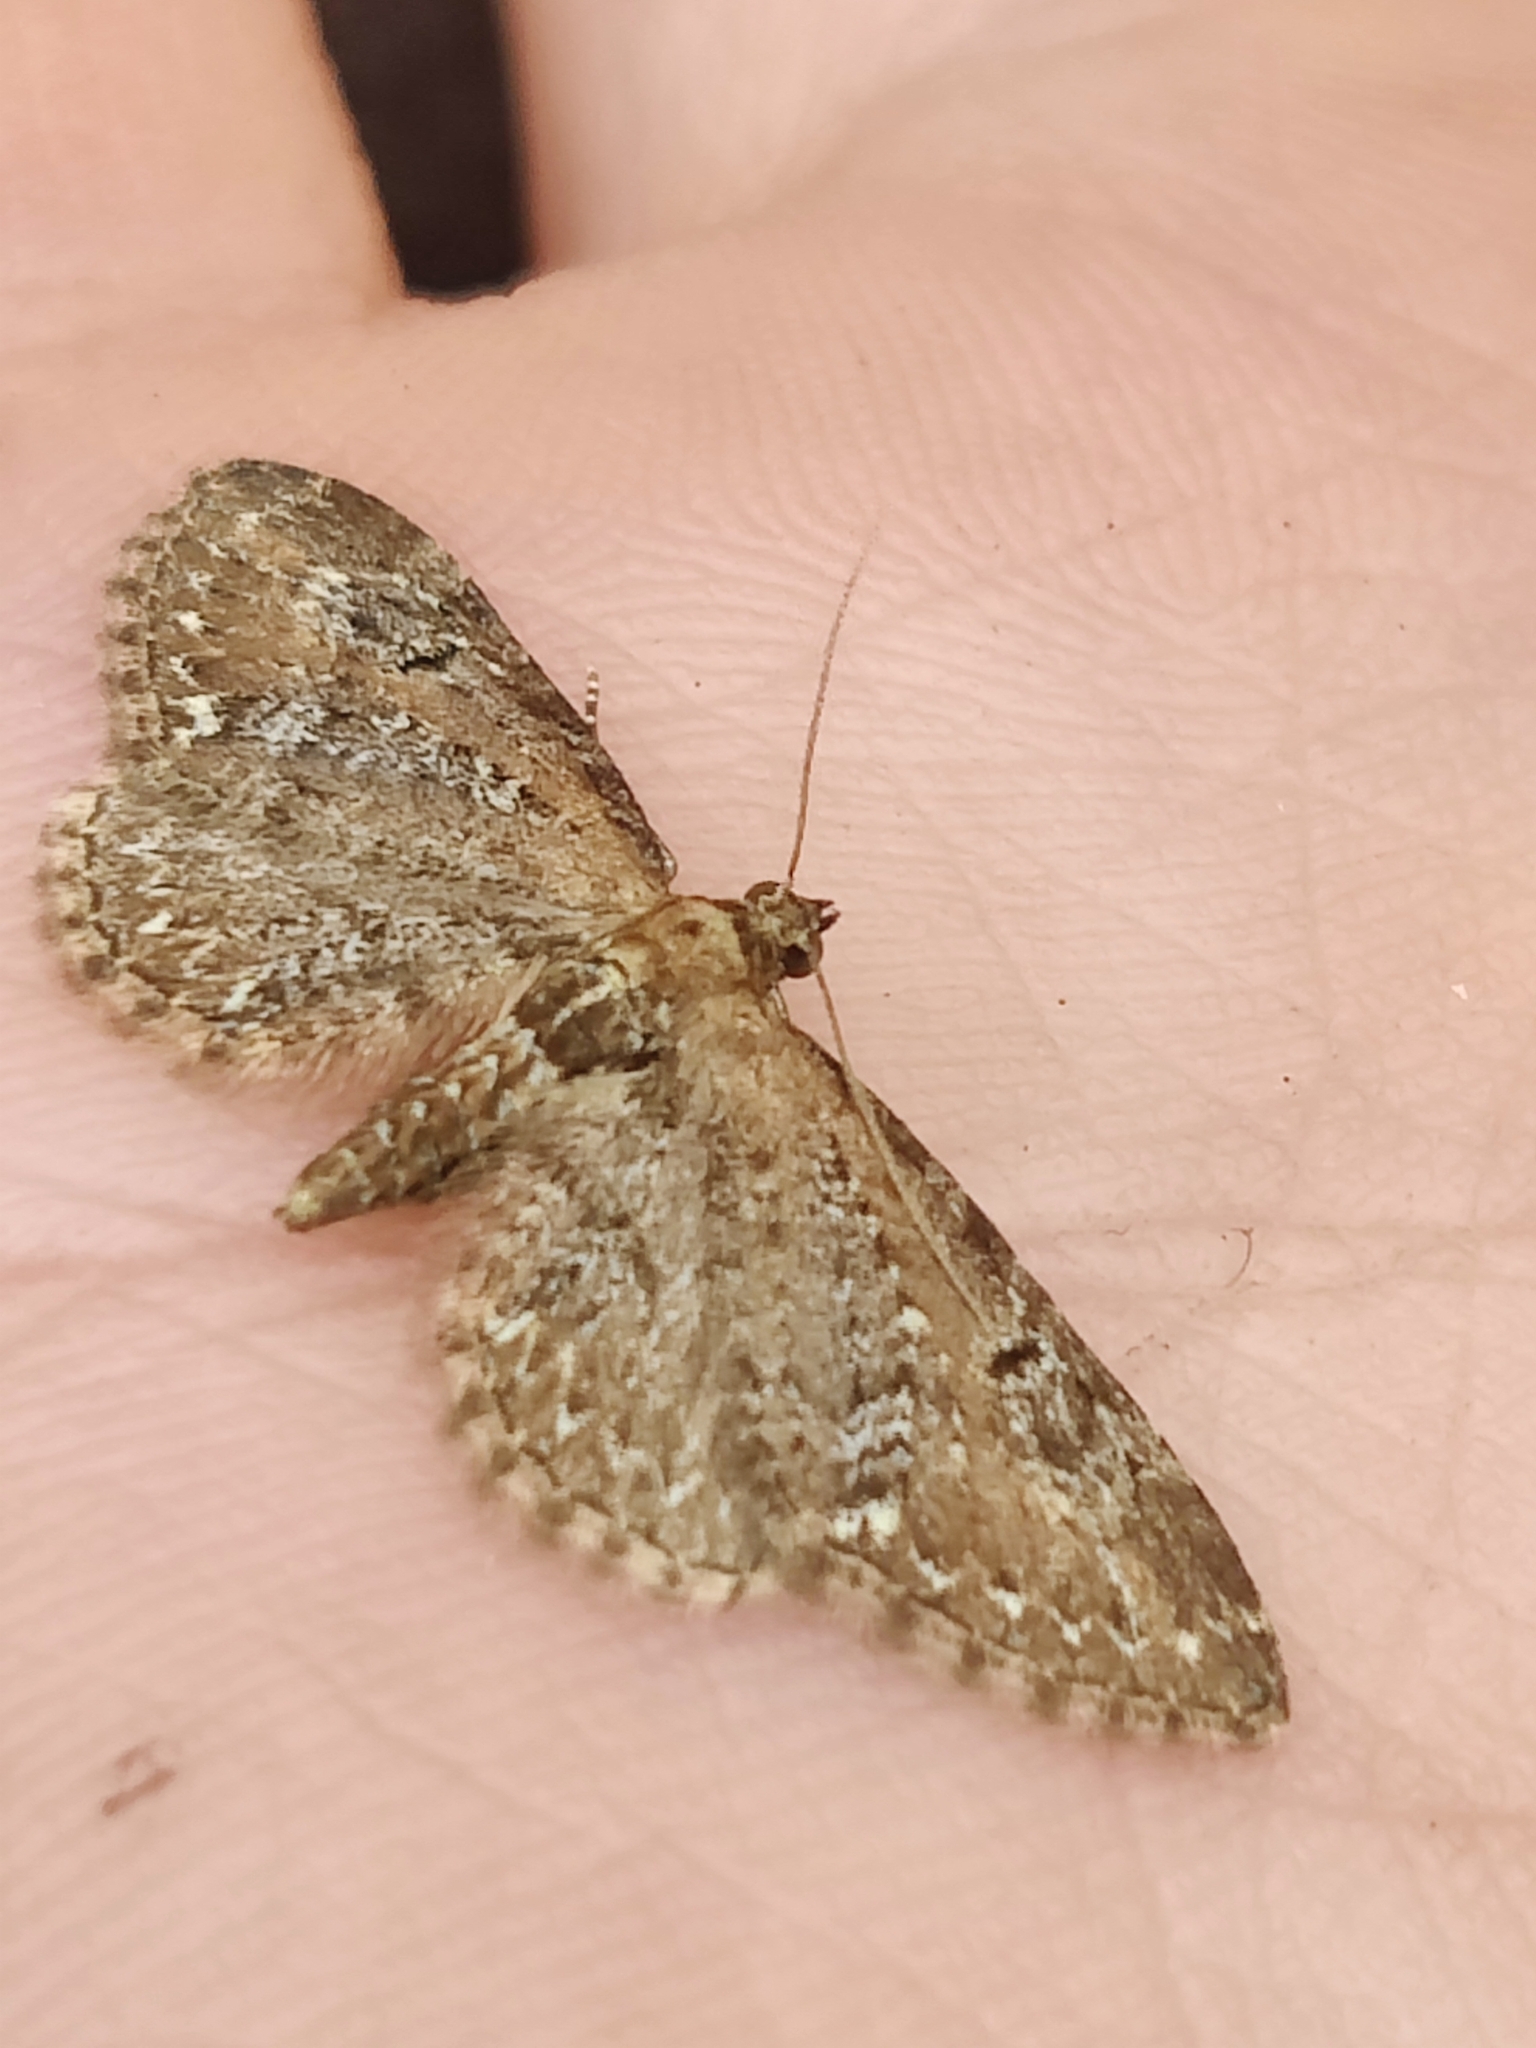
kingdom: Animalia
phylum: Arthropoda
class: Insecta
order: Lepidoptera
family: Geometridae
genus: Eupithecia
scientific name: Eupithecia vulgata
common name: Common pug
